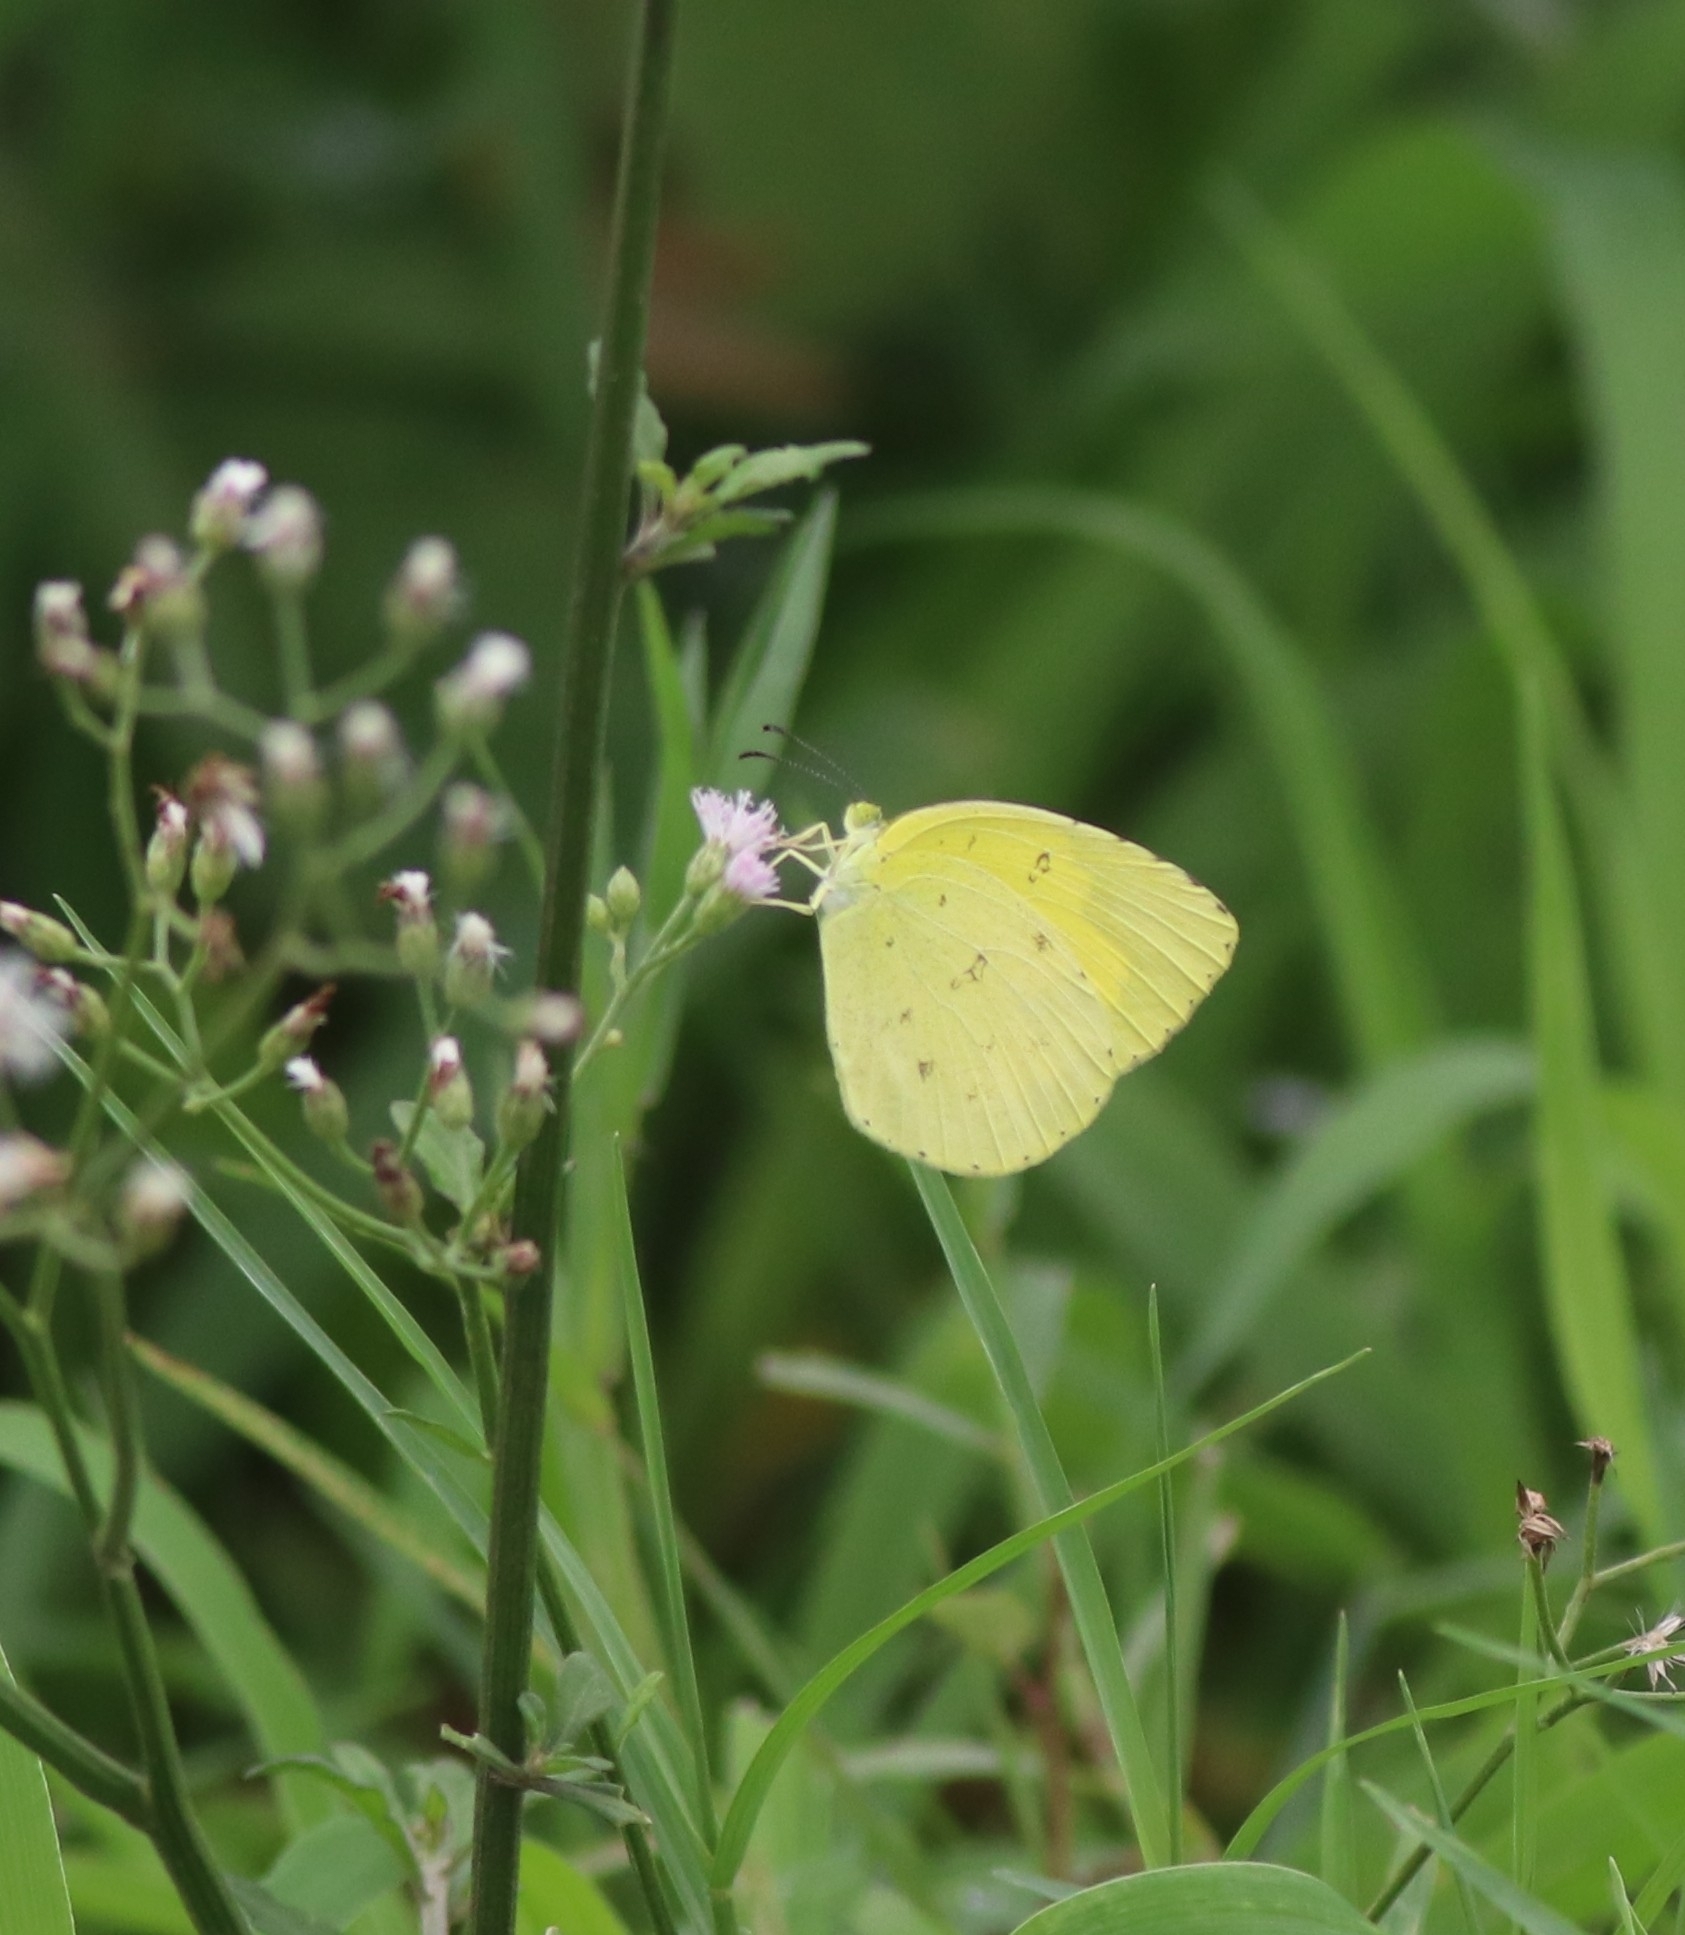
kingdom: Animalia
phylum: Arthropoda
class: Insecta
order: Lepidoptera
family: Pieridae
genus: Eurema
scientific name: Eurema hecabe
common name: Pale grass yellow
